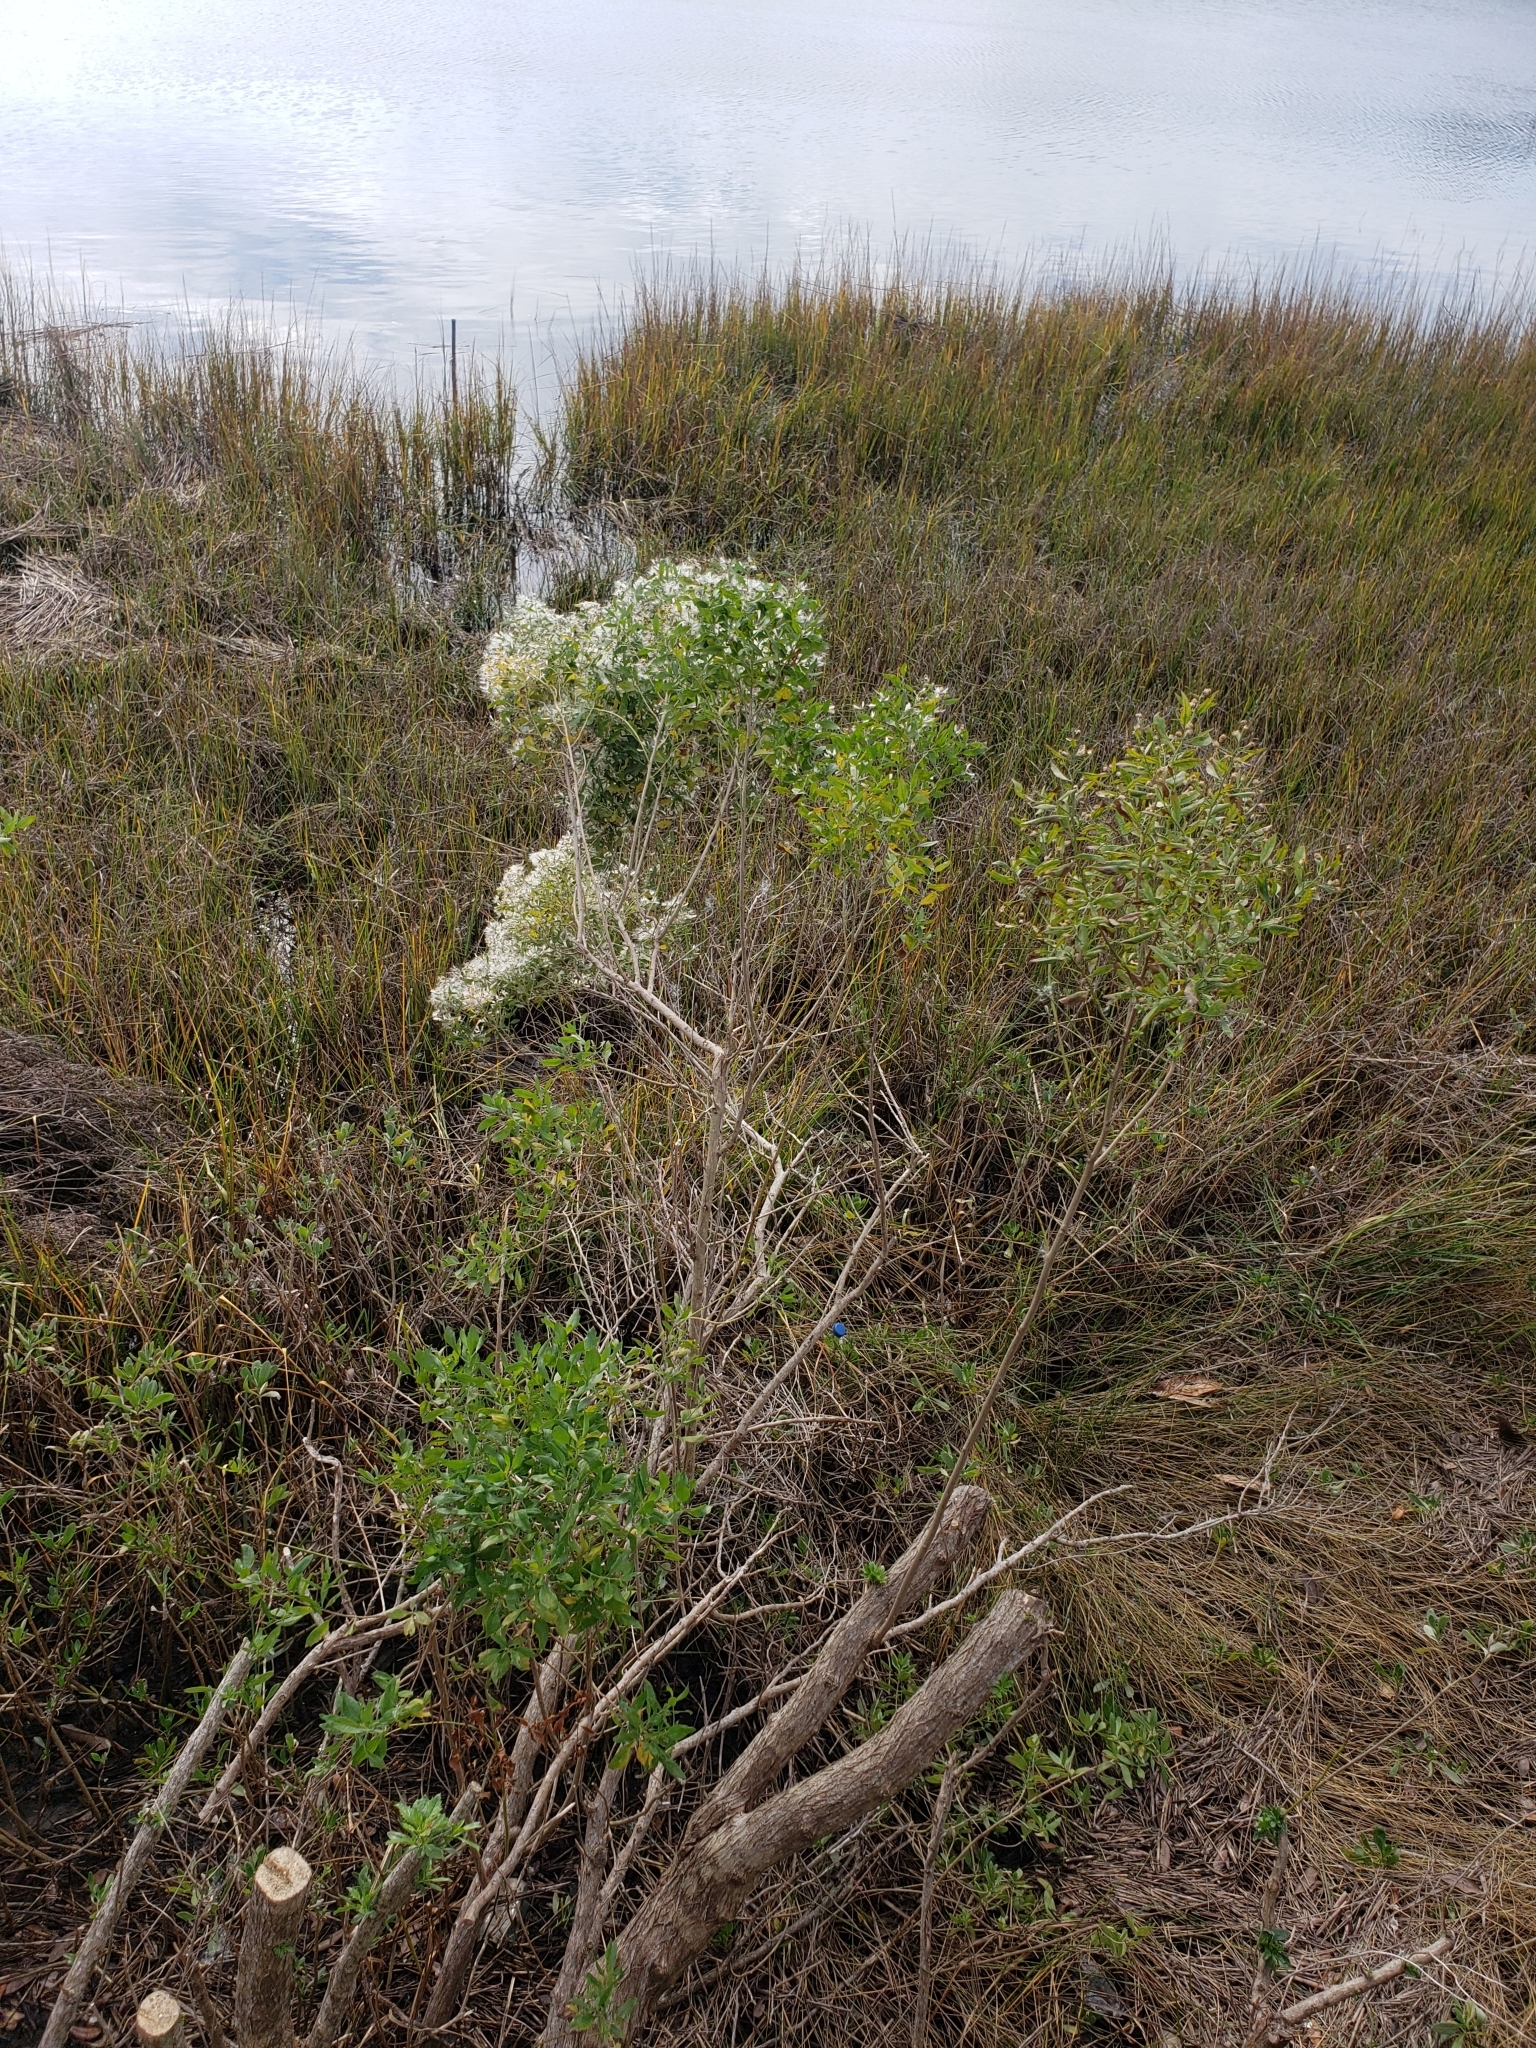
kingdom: Plantae
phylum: Tracheophyta
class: Magnoliopsida
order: Asterales
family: Asteraceae
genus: Baccharis
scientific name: Baccharis halimifolia
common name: Eastern baccharis
